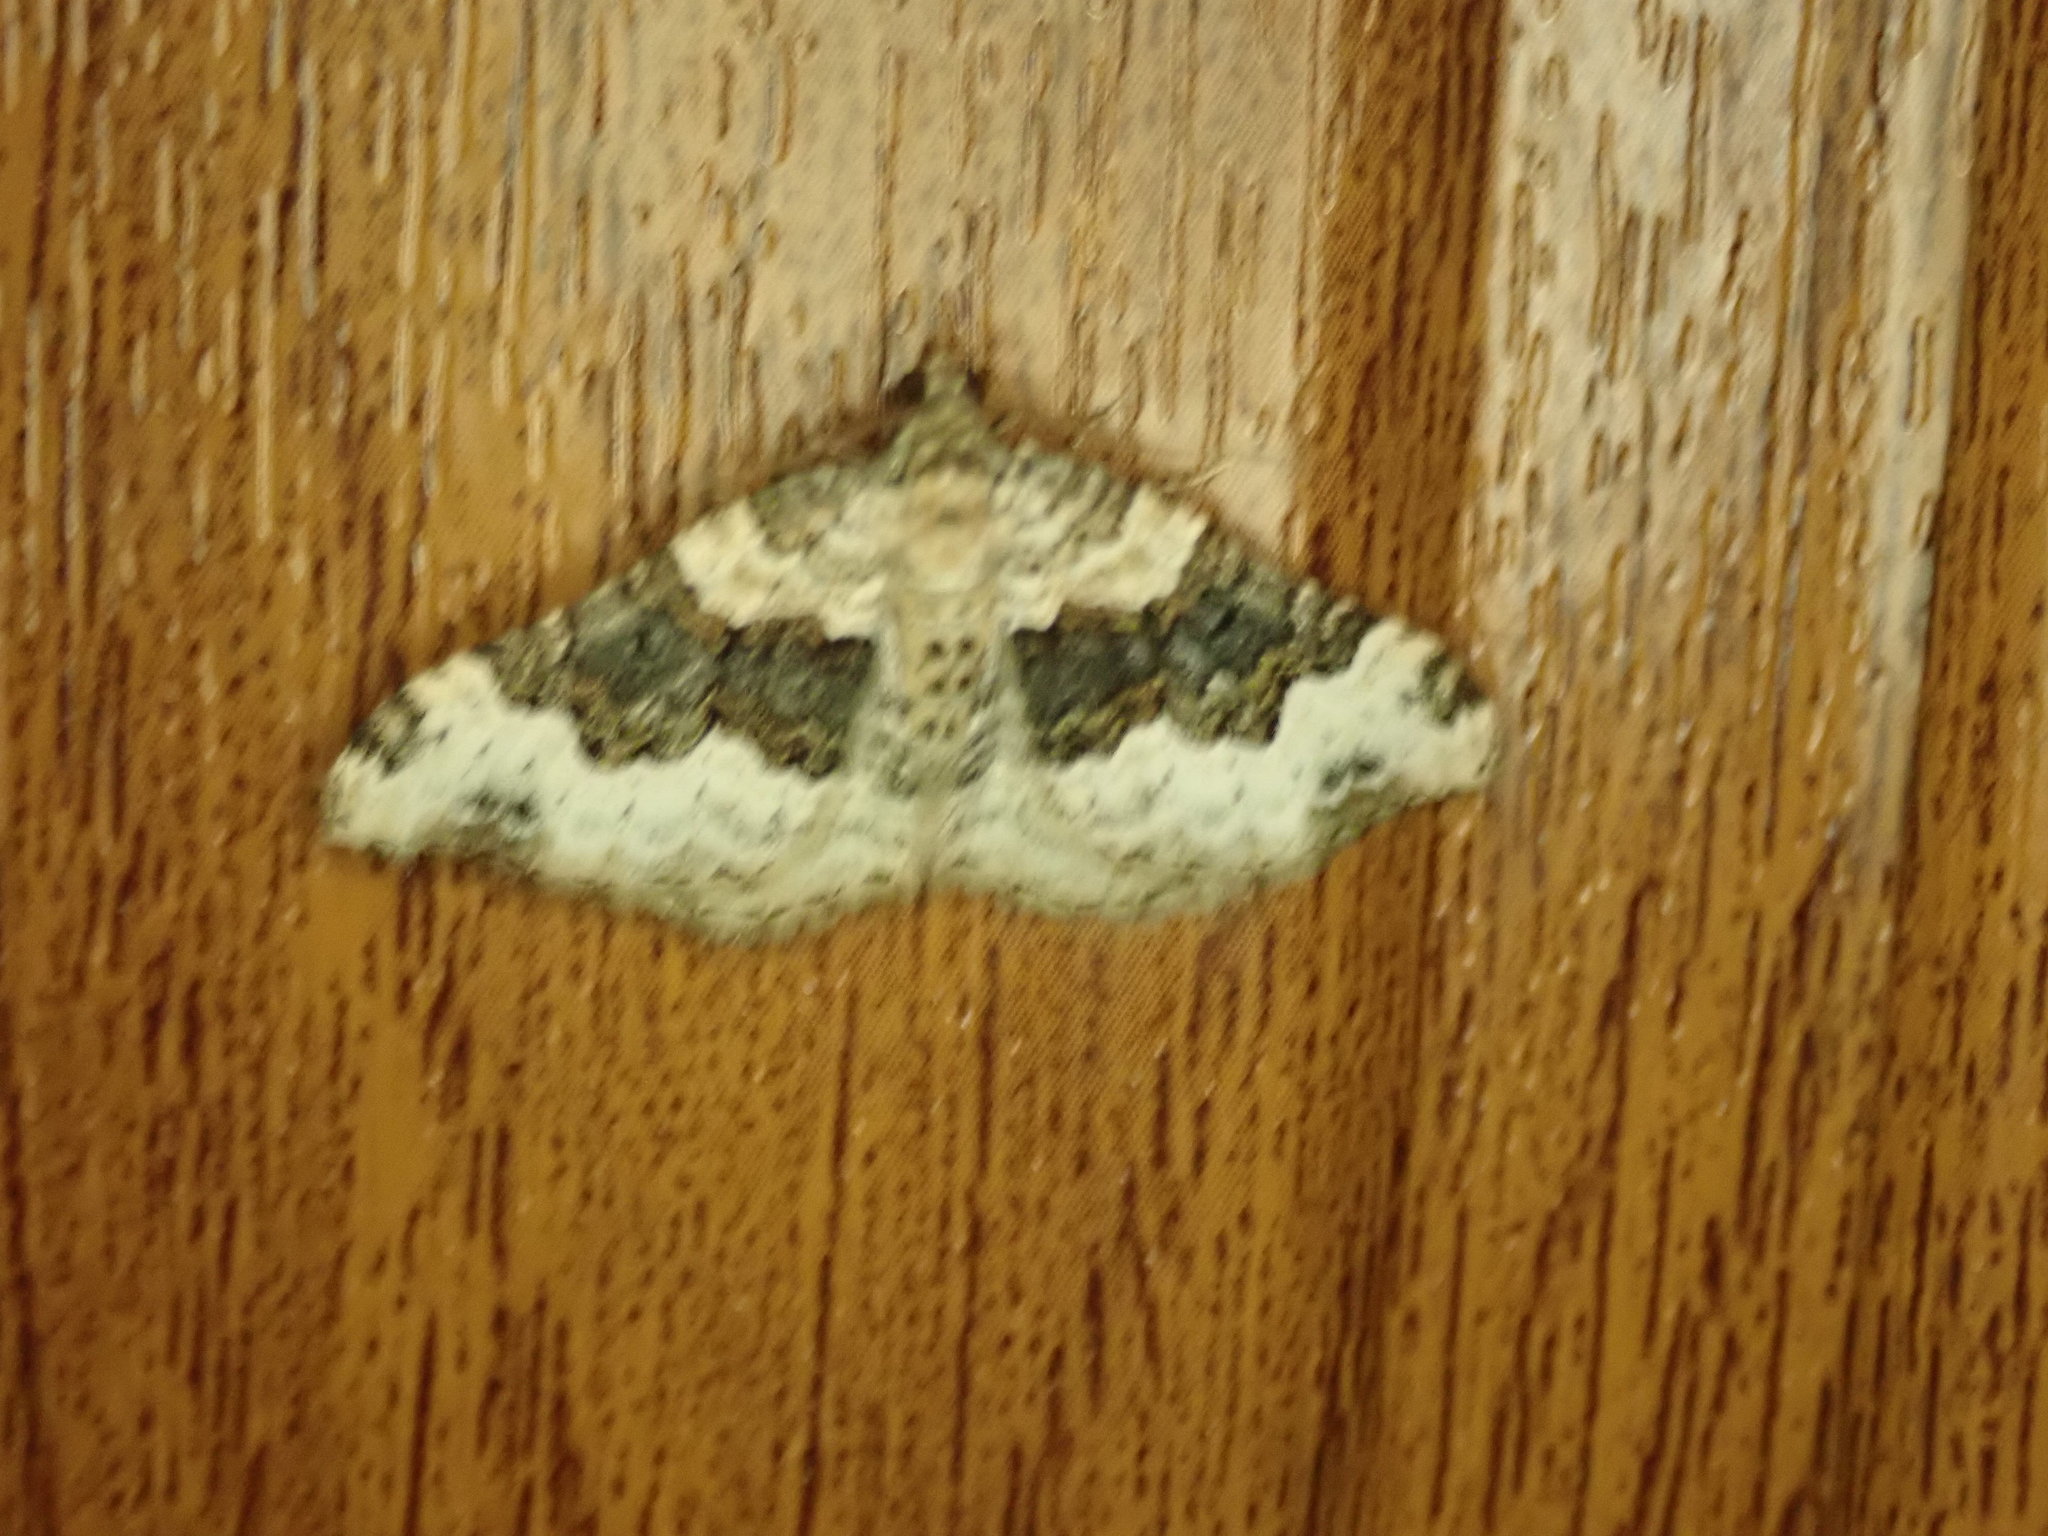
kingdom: Animalia
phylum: Arthropoda
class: Insecta
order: Lepidoptera
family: Geometridae
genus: Epirrhoe
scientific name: Epirrhoe galiata
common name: Galium carpet
